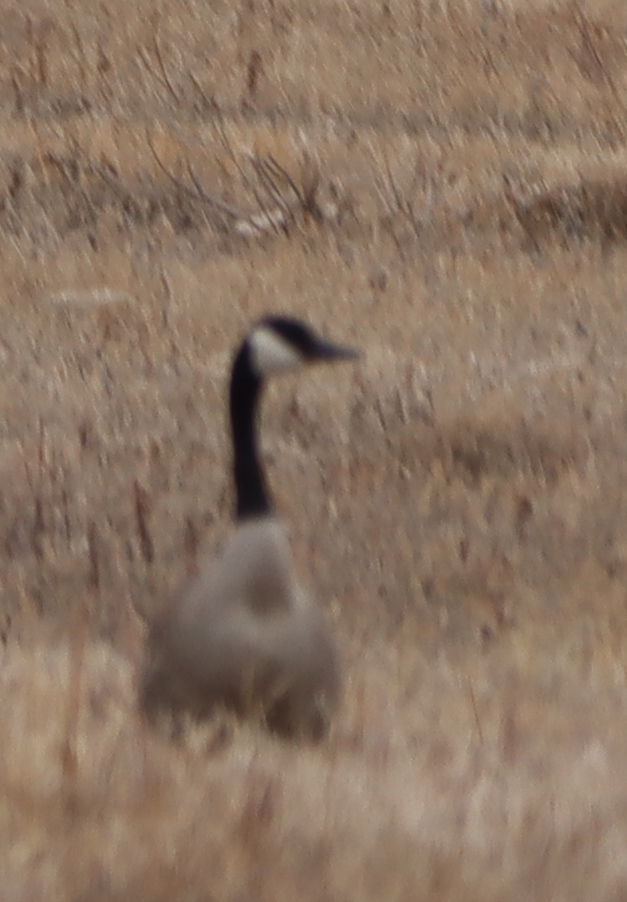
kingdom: Animalia
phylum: Chordata
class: Aves
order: Anseriformes
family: Anatidae
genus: Branta
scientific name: Branta canadensis
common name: Canada goose
